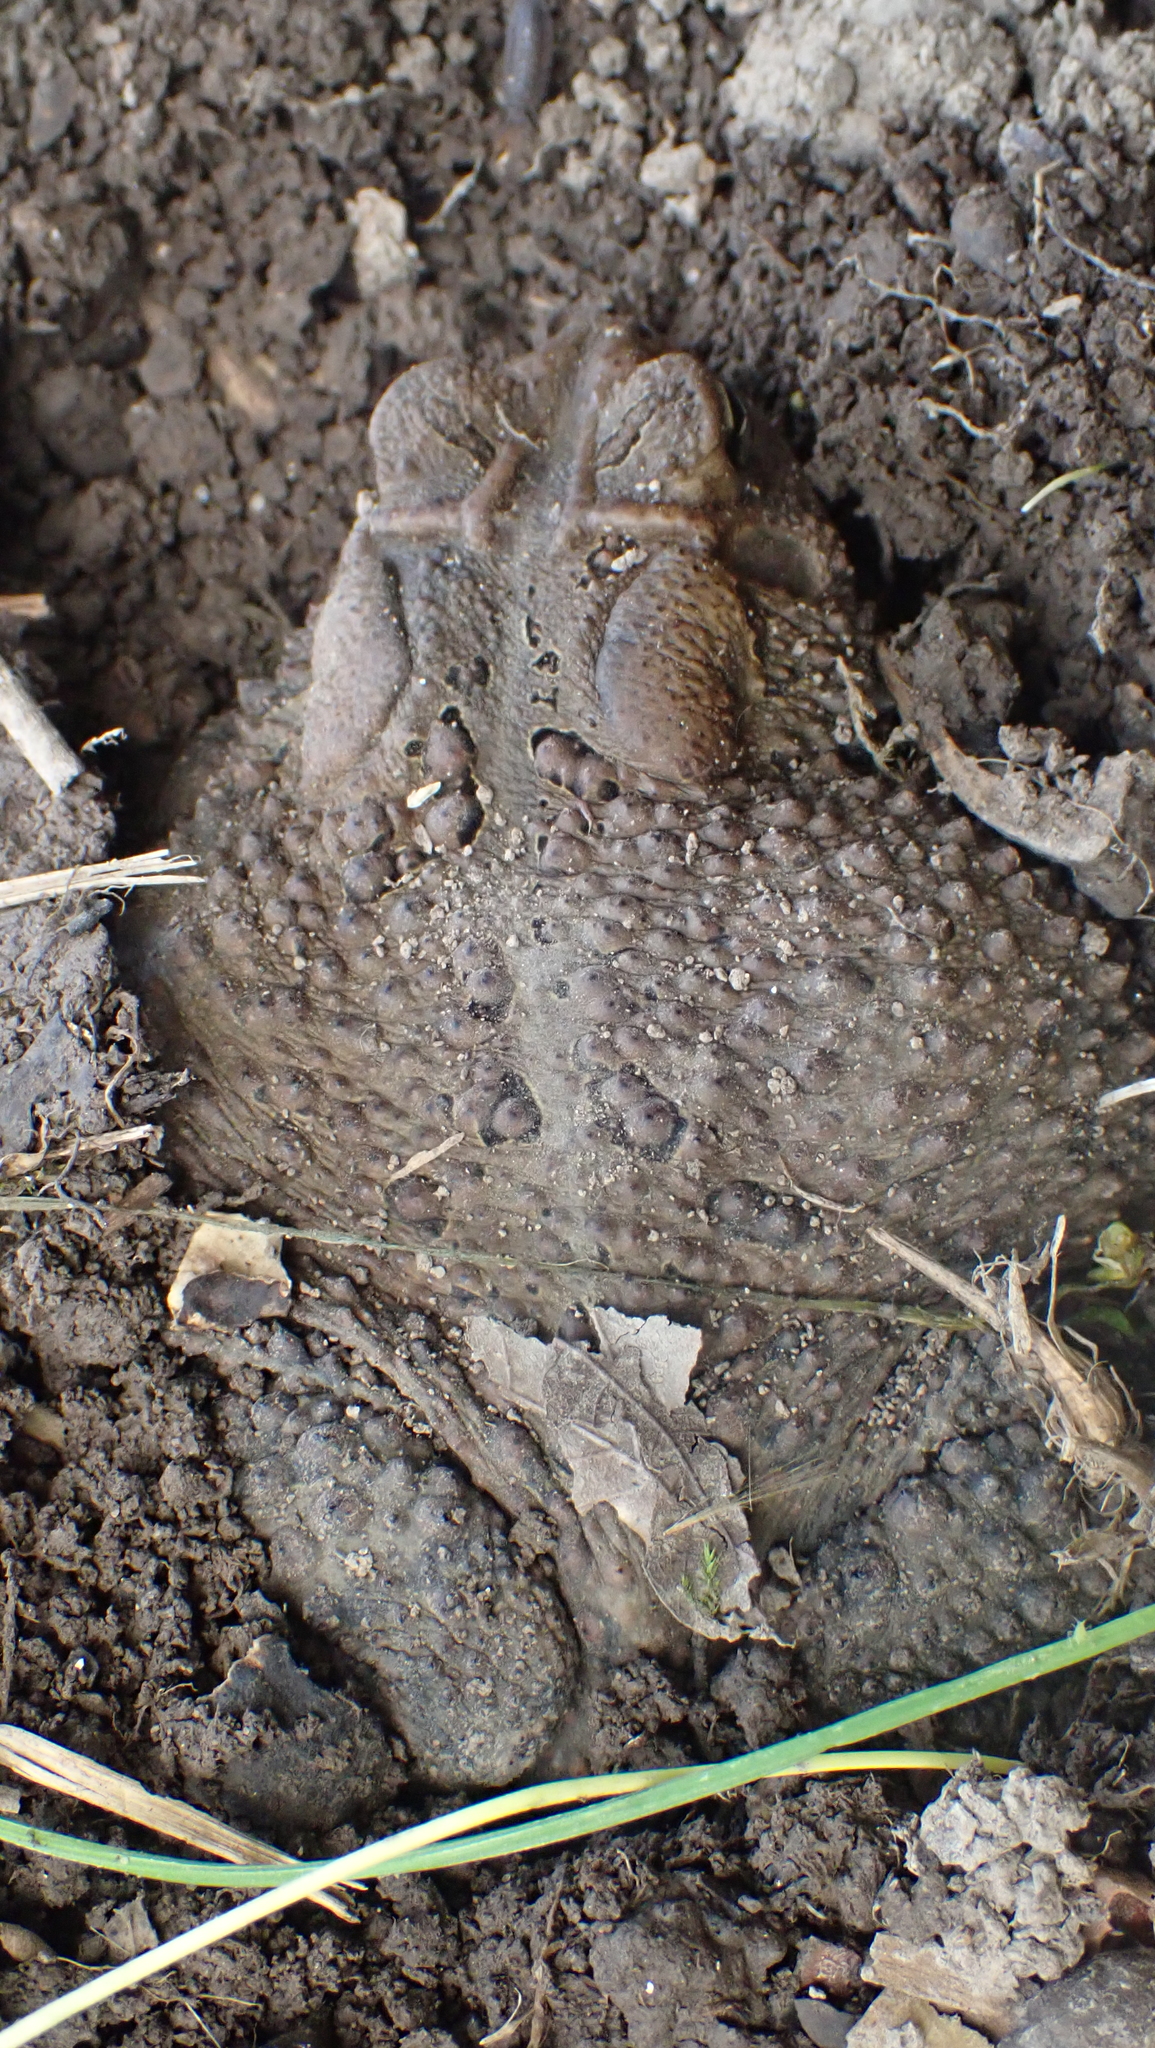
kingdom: Animalia
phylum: Chordata
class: Amphibia
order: Anura
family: Bufonidae
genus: Anaxyrus
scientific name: Anaxyrus americanus
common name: American toad
